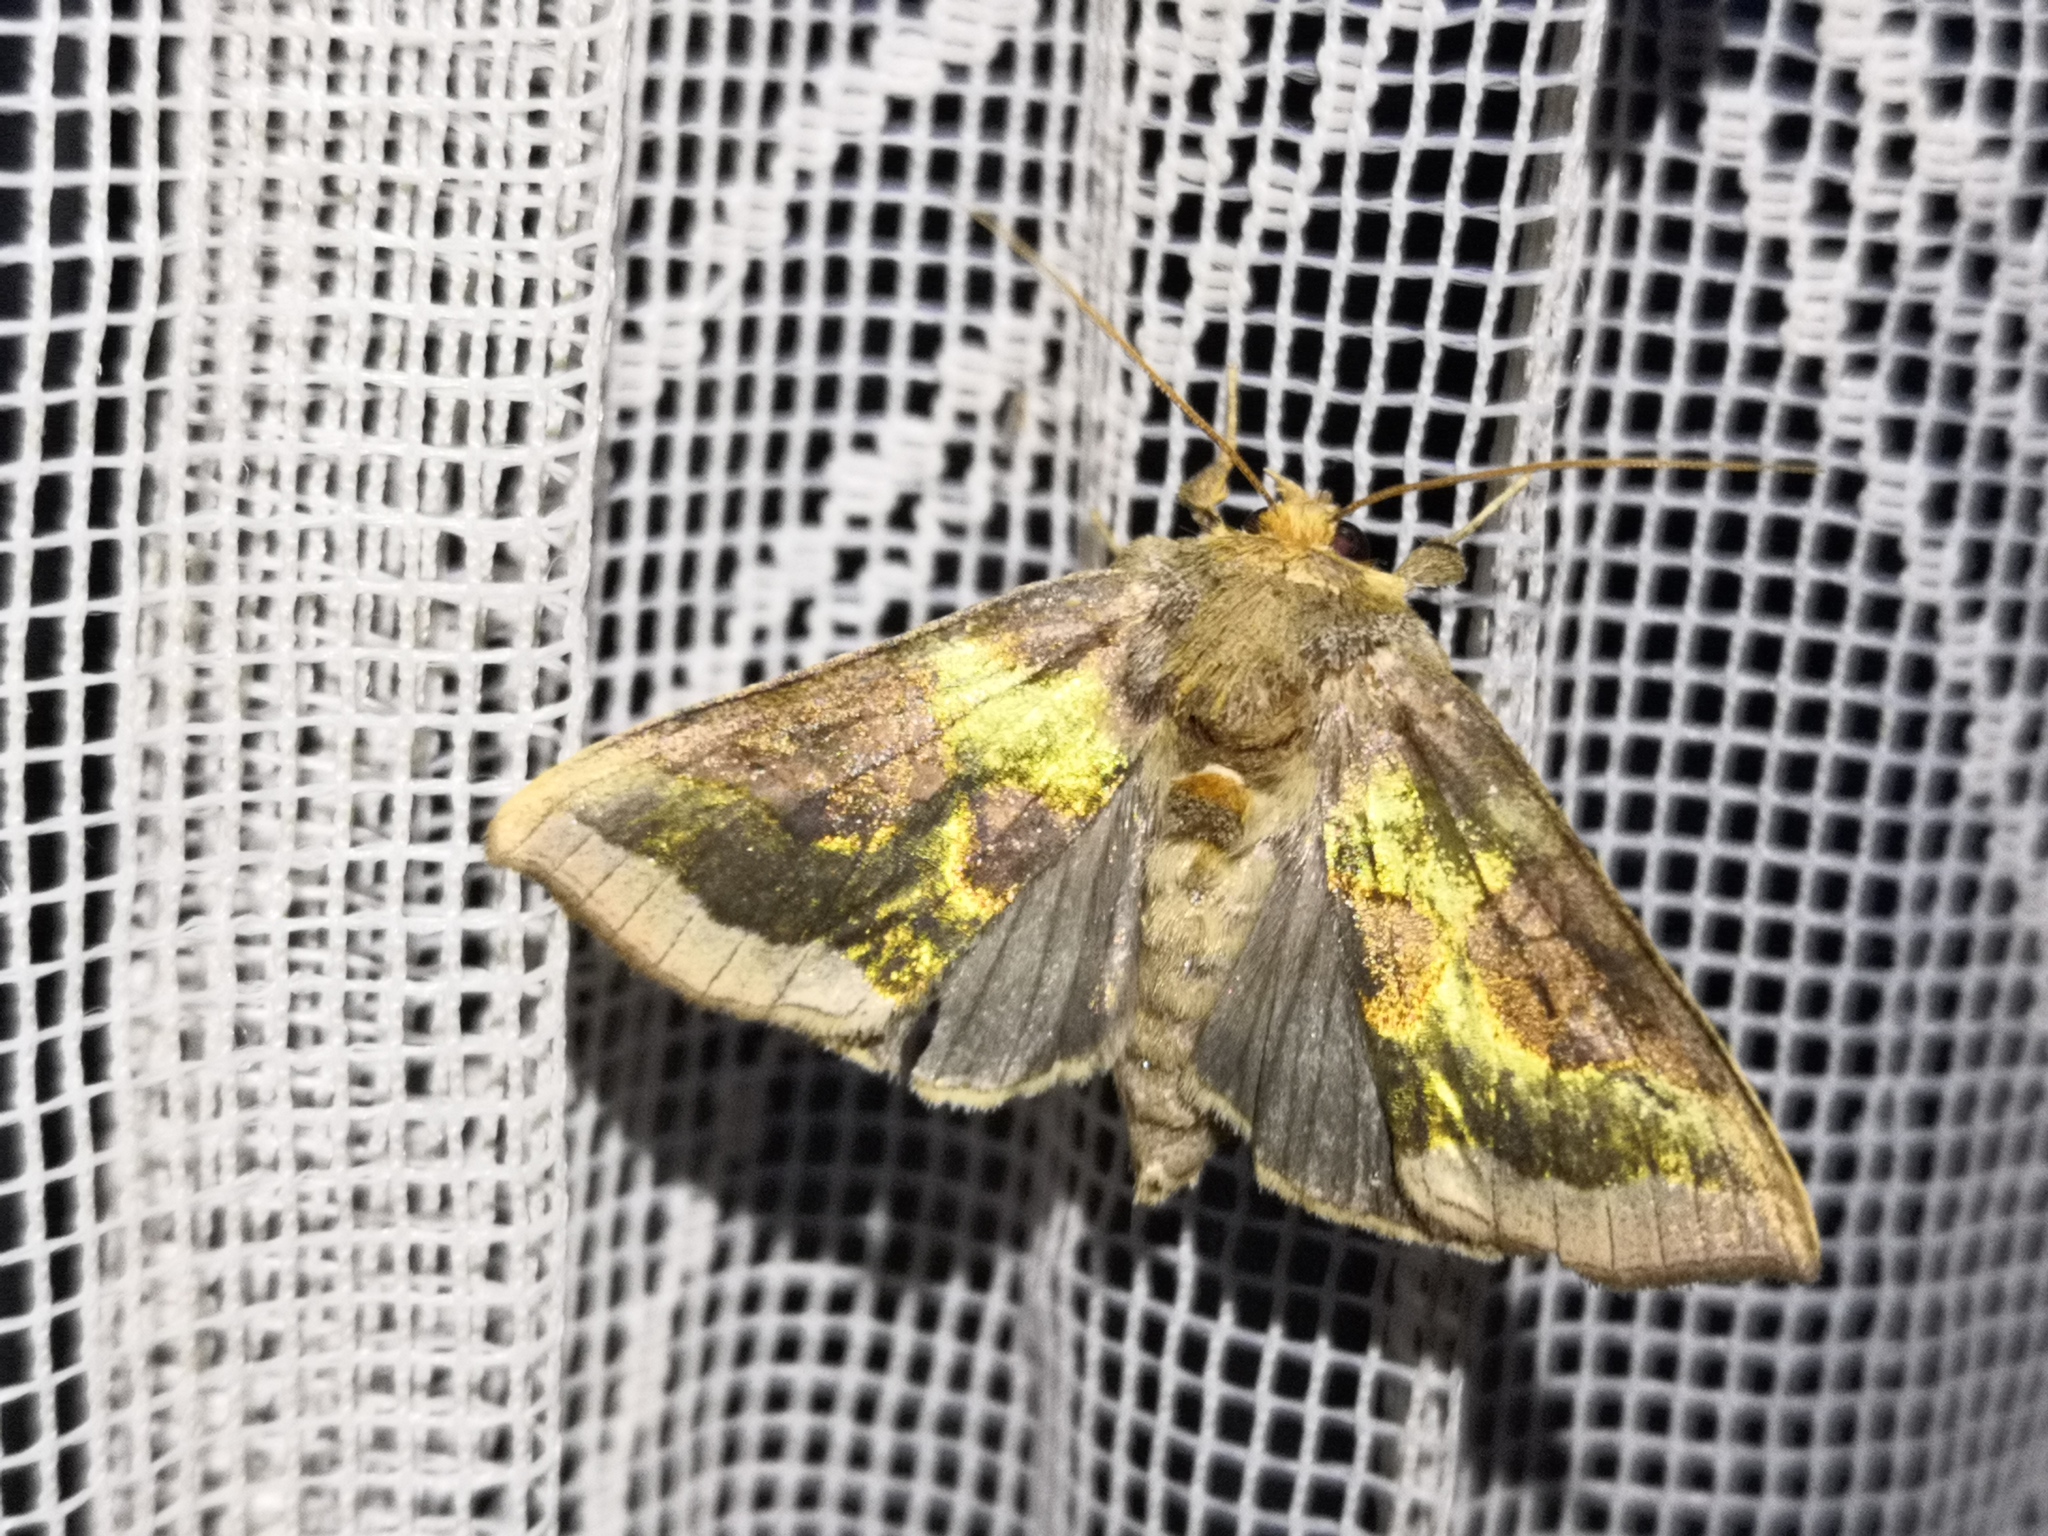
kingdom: Animalia
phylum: Arthropoda
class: Insecta
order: Lepidoptera
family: Noctuidae
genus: Diachrysia
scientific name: Diachrysia chrysitis
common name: Burnished brass
